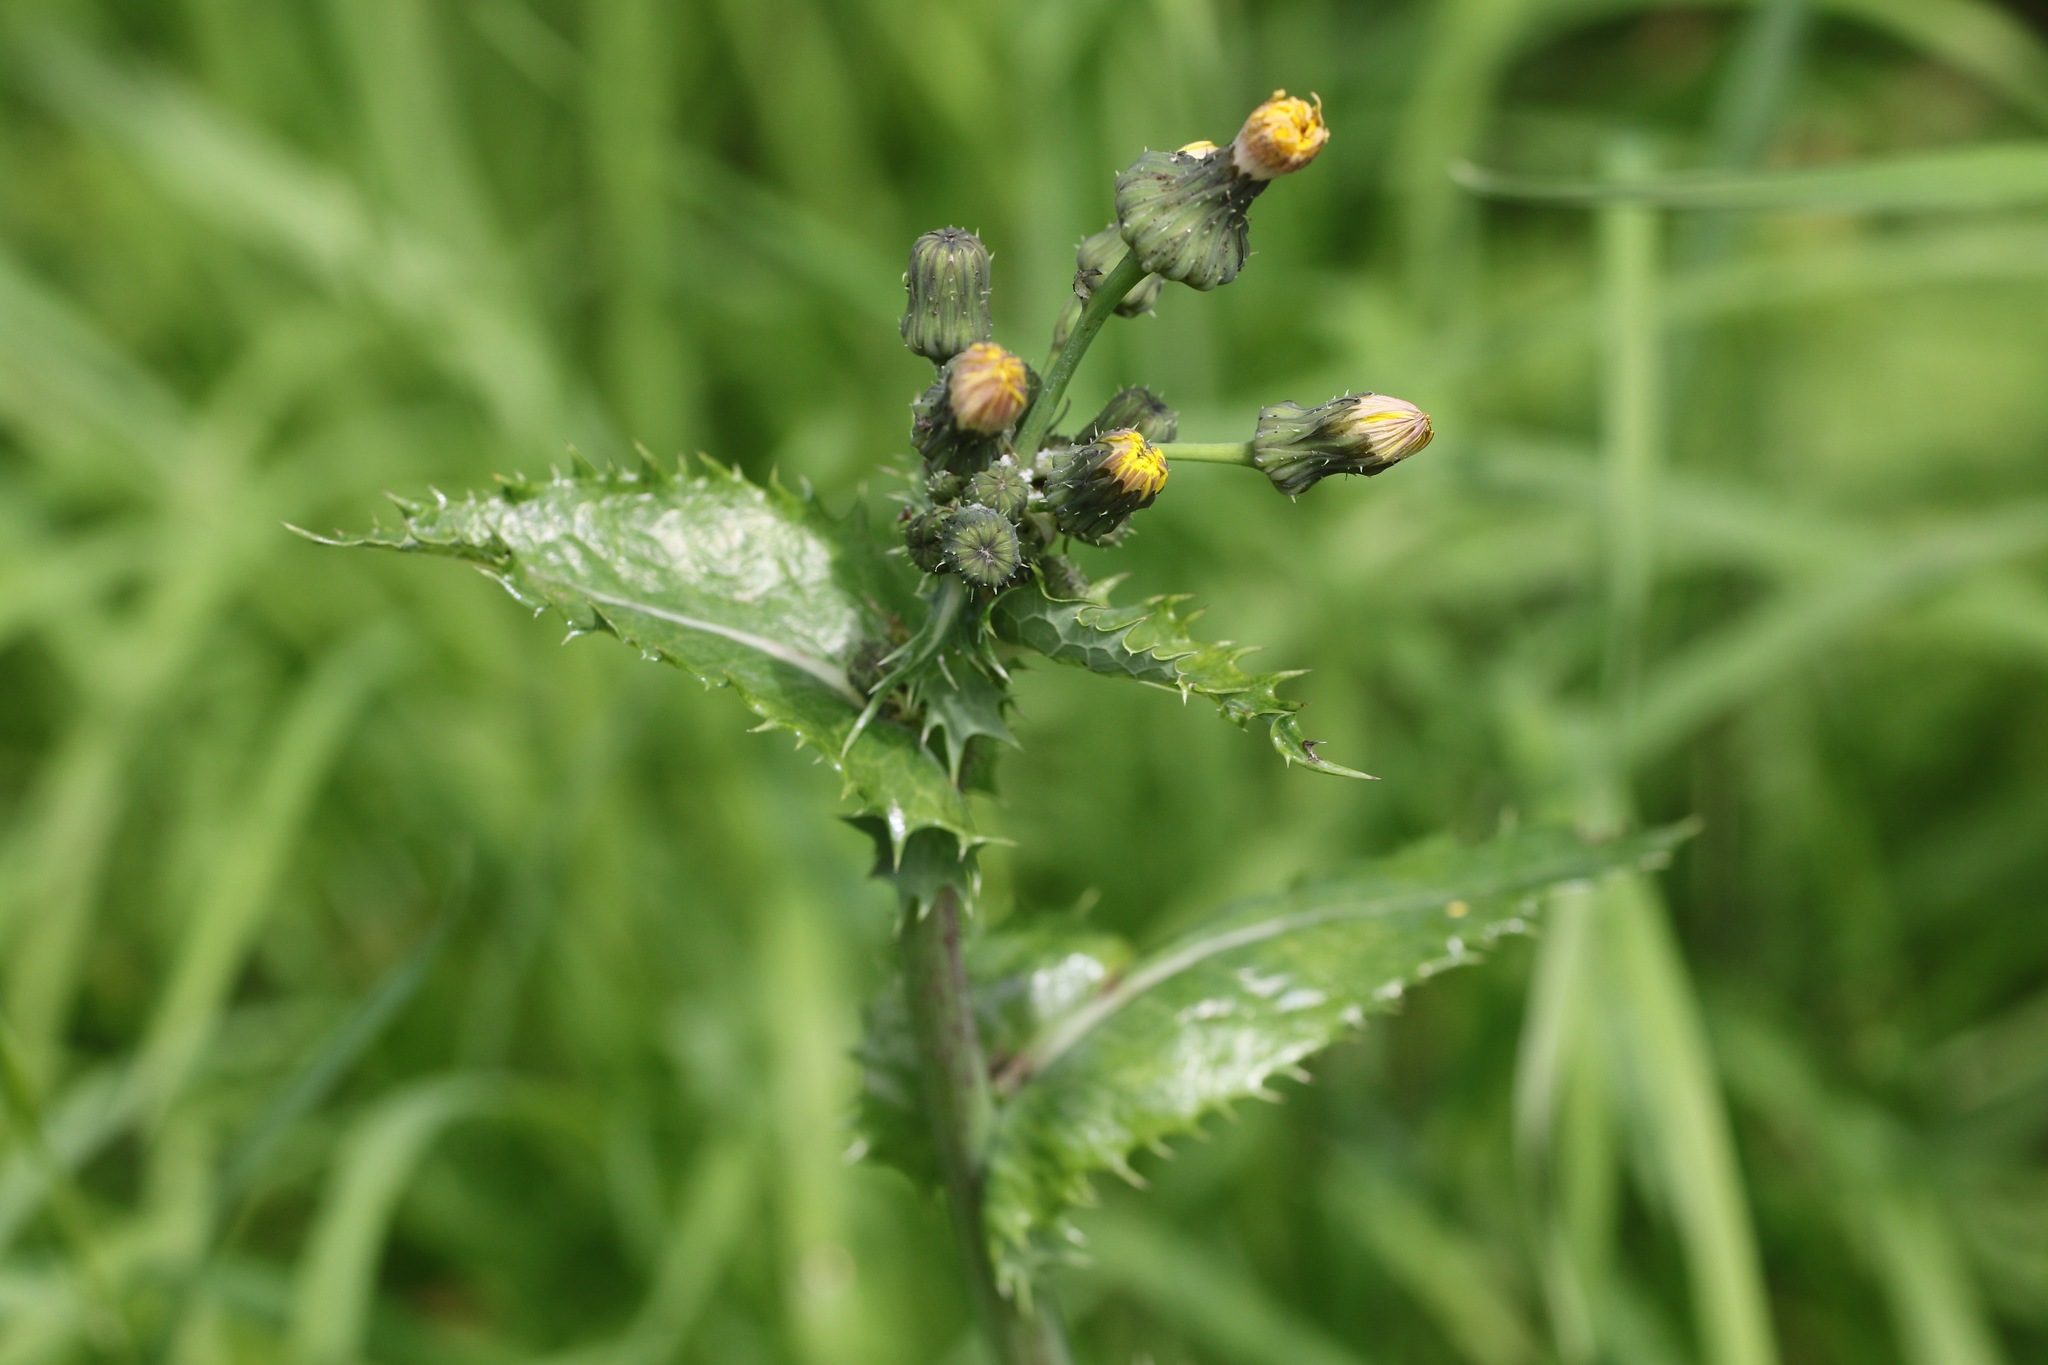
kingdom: Plantae
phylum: Tracheophyta
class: Magnoliopsida
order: Asterales
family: Asteraceae
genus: Sonchus
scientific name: Sonchus asper
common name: Prickly sow-thistle
